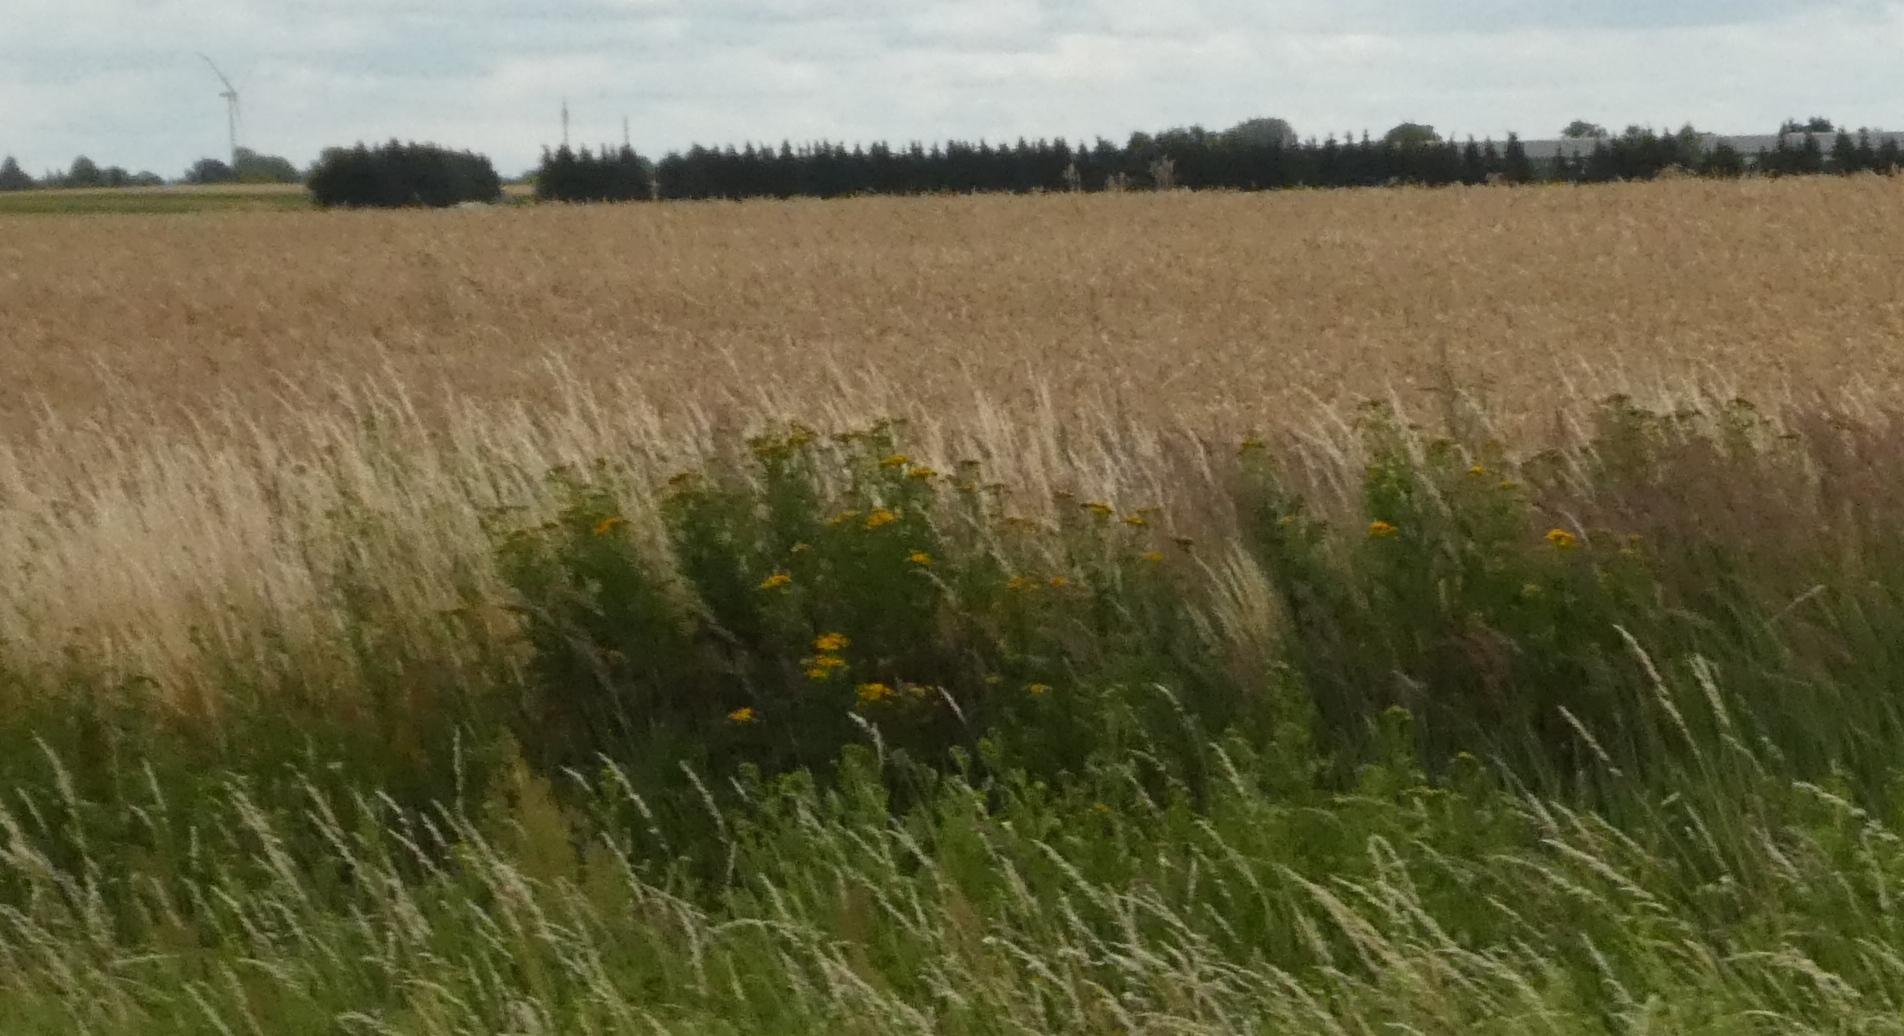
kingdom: Plantae
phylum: Tracheophyta
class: Magnoliopsida
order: Asterales
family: Asteraceae
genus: Tanacetum
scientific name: Tanacetum vulgare
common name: Common tansy
